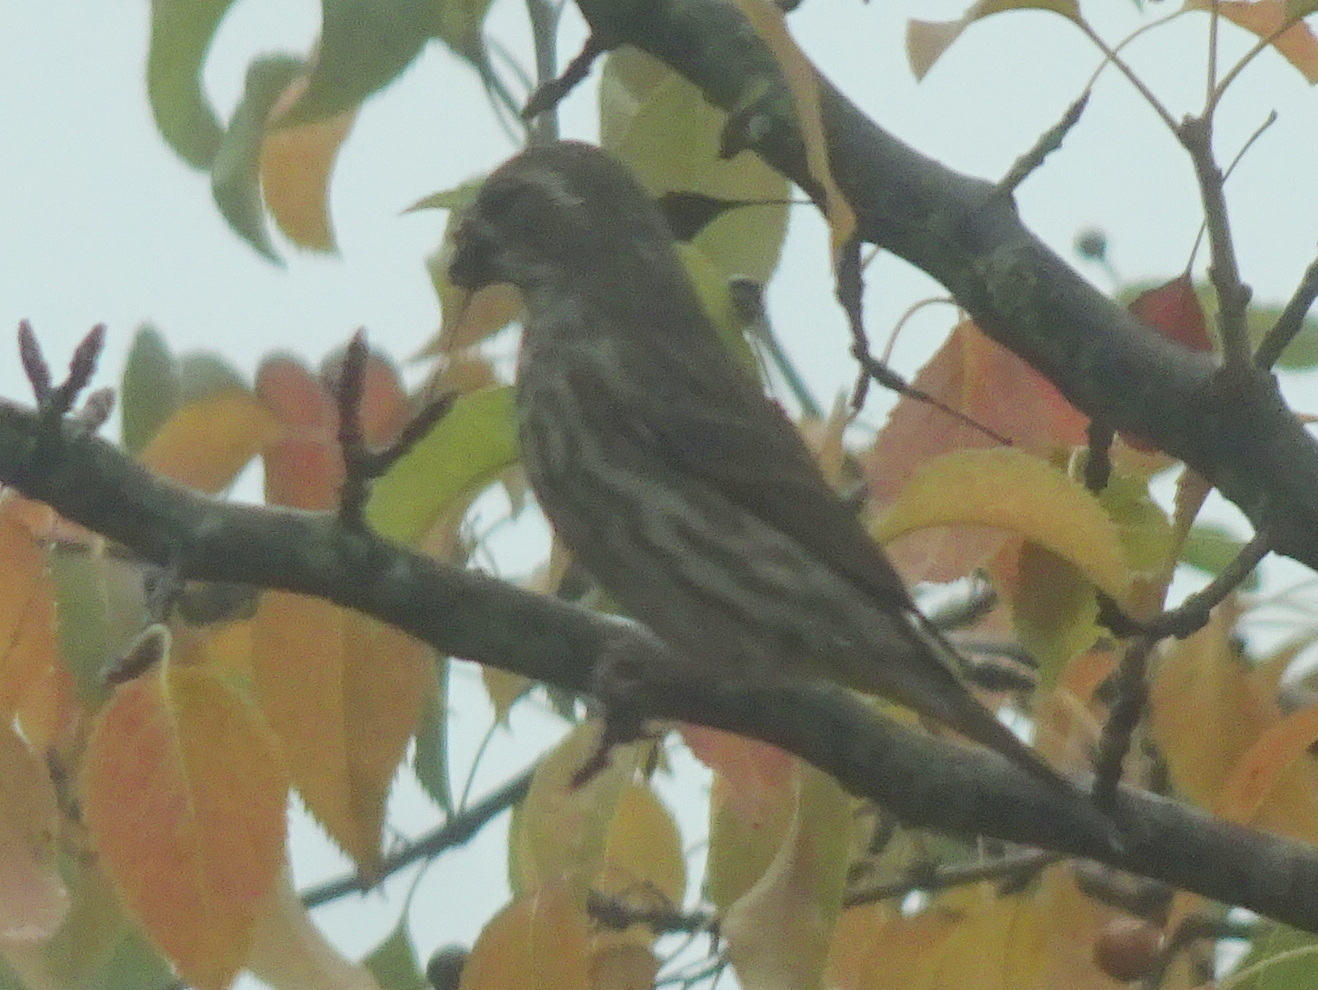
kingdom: Animalia
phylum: Chordata
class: Aves
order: Passeriformes
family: Fringillidae
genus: Haemorhous
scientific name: Haemorhous purpureus
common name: Purple finch
